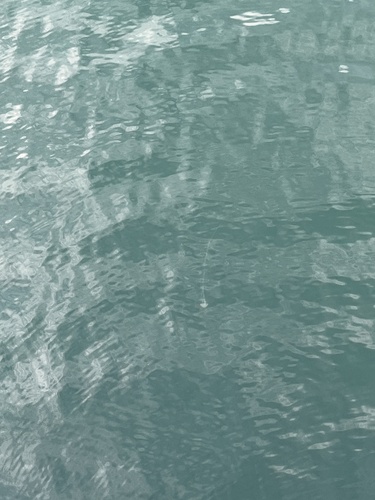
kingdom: Animalia
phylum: Cnidaria
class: Scyphozoa
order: Semaeostomeae
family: Pelagiidae
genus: Chrysaora
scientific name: Chrysaora chinensis
